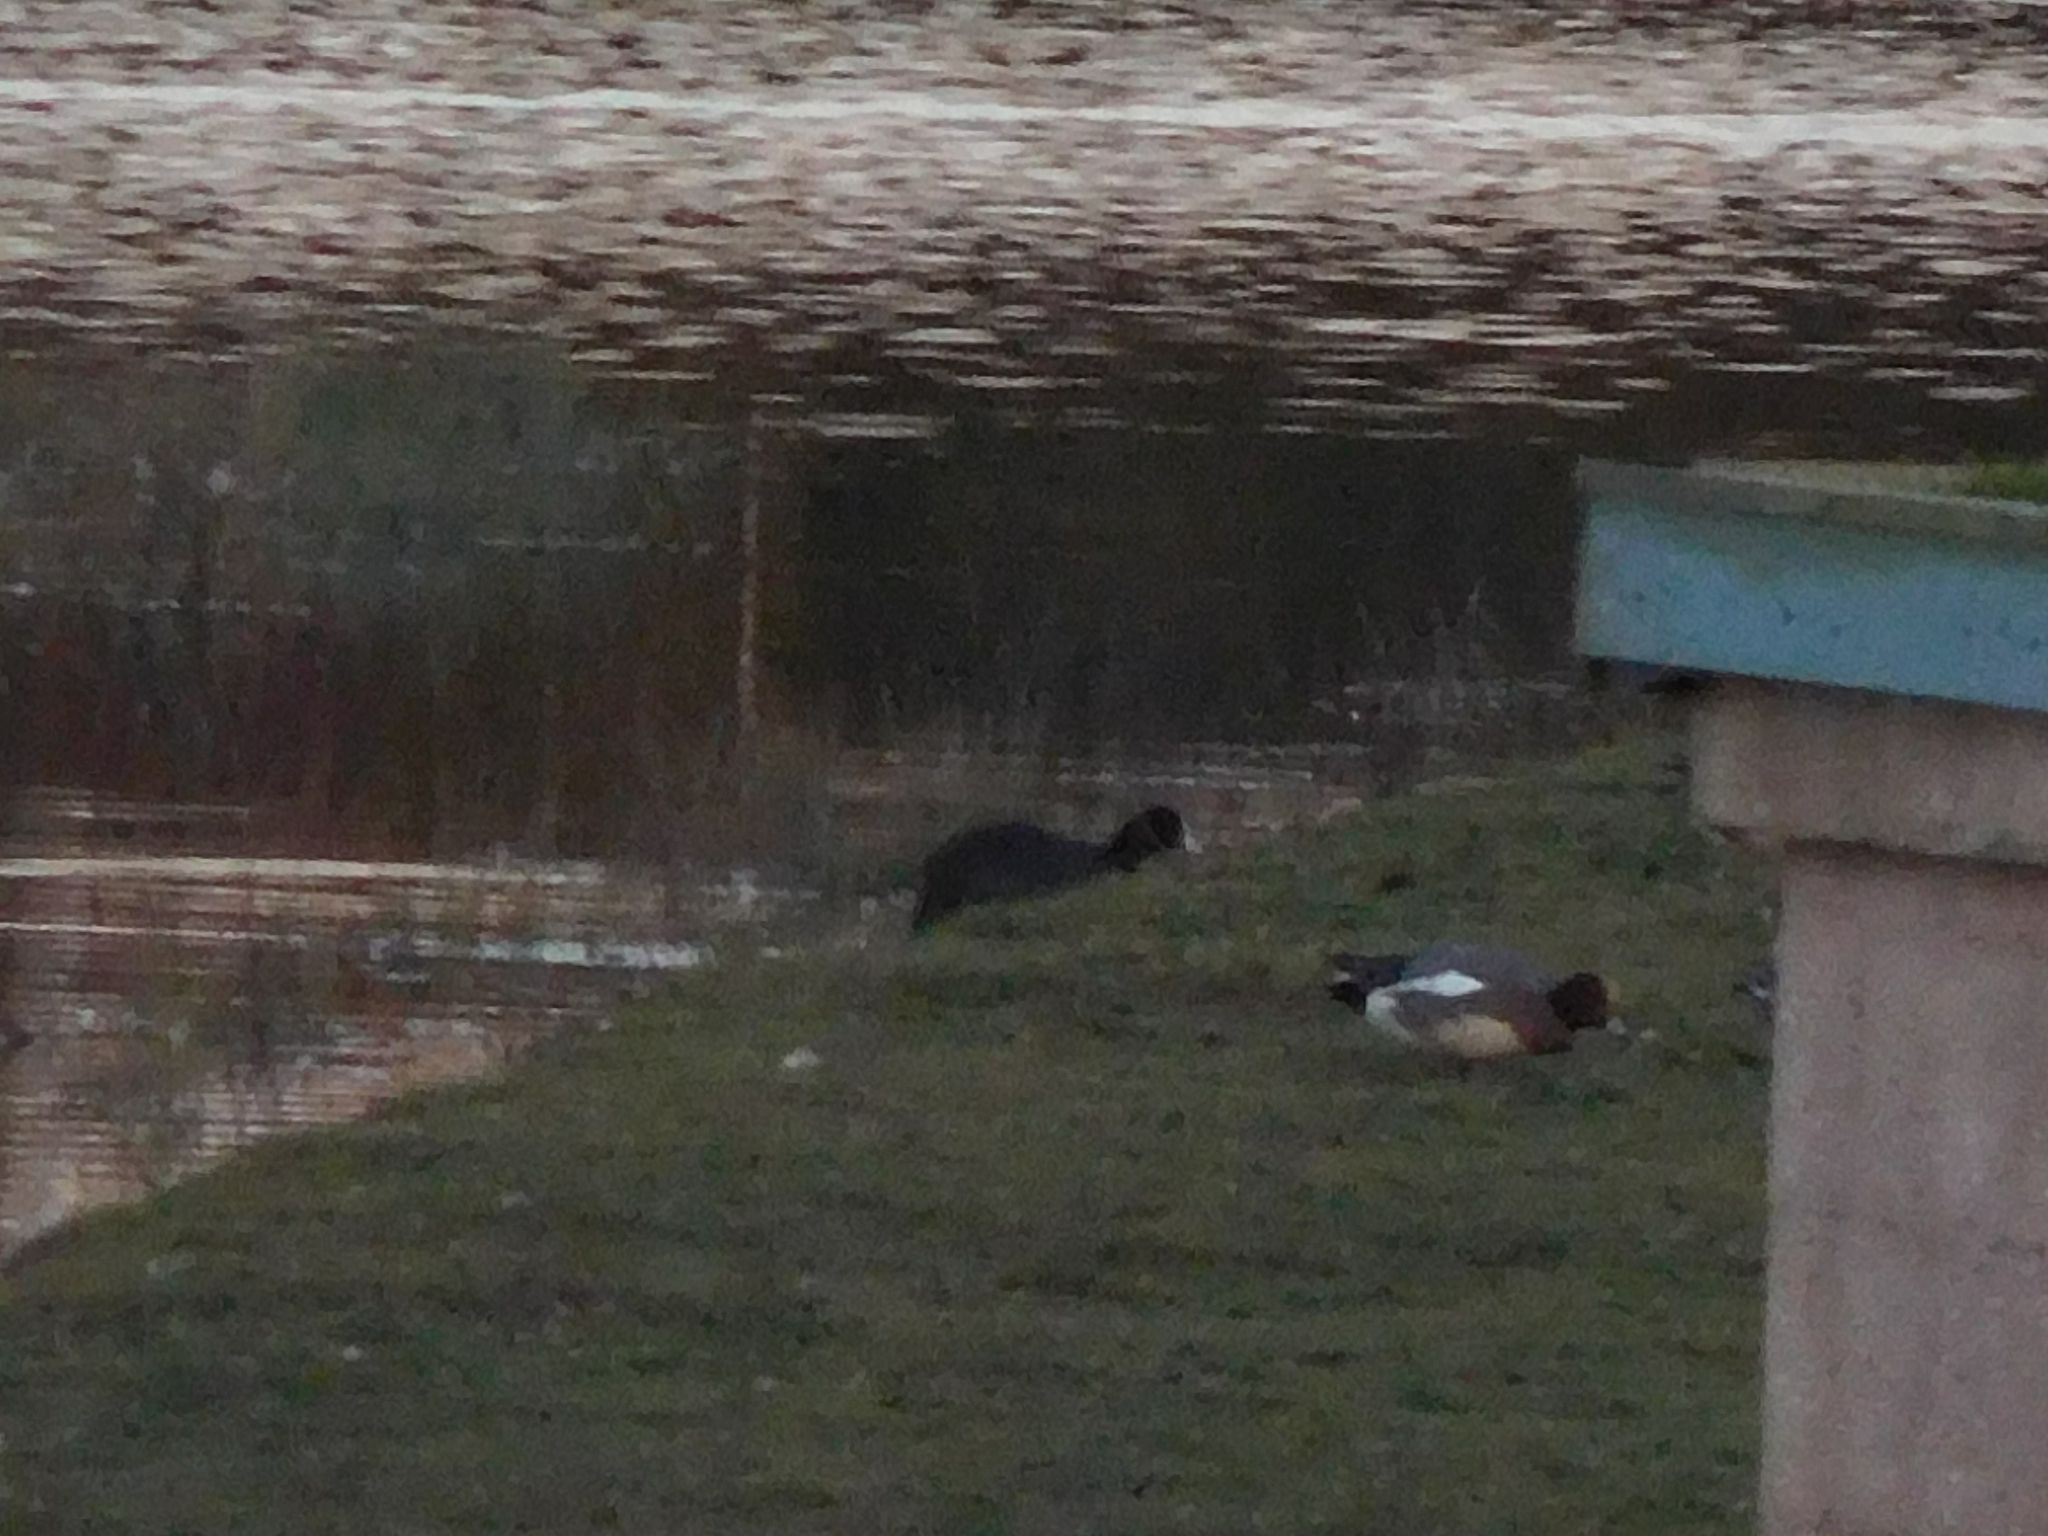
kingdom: Animalia
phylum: Chordata
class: Aves
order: Gruiformes
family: Rallidae
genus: Fulica
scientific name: Fulica atra
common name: Eurasian coot
